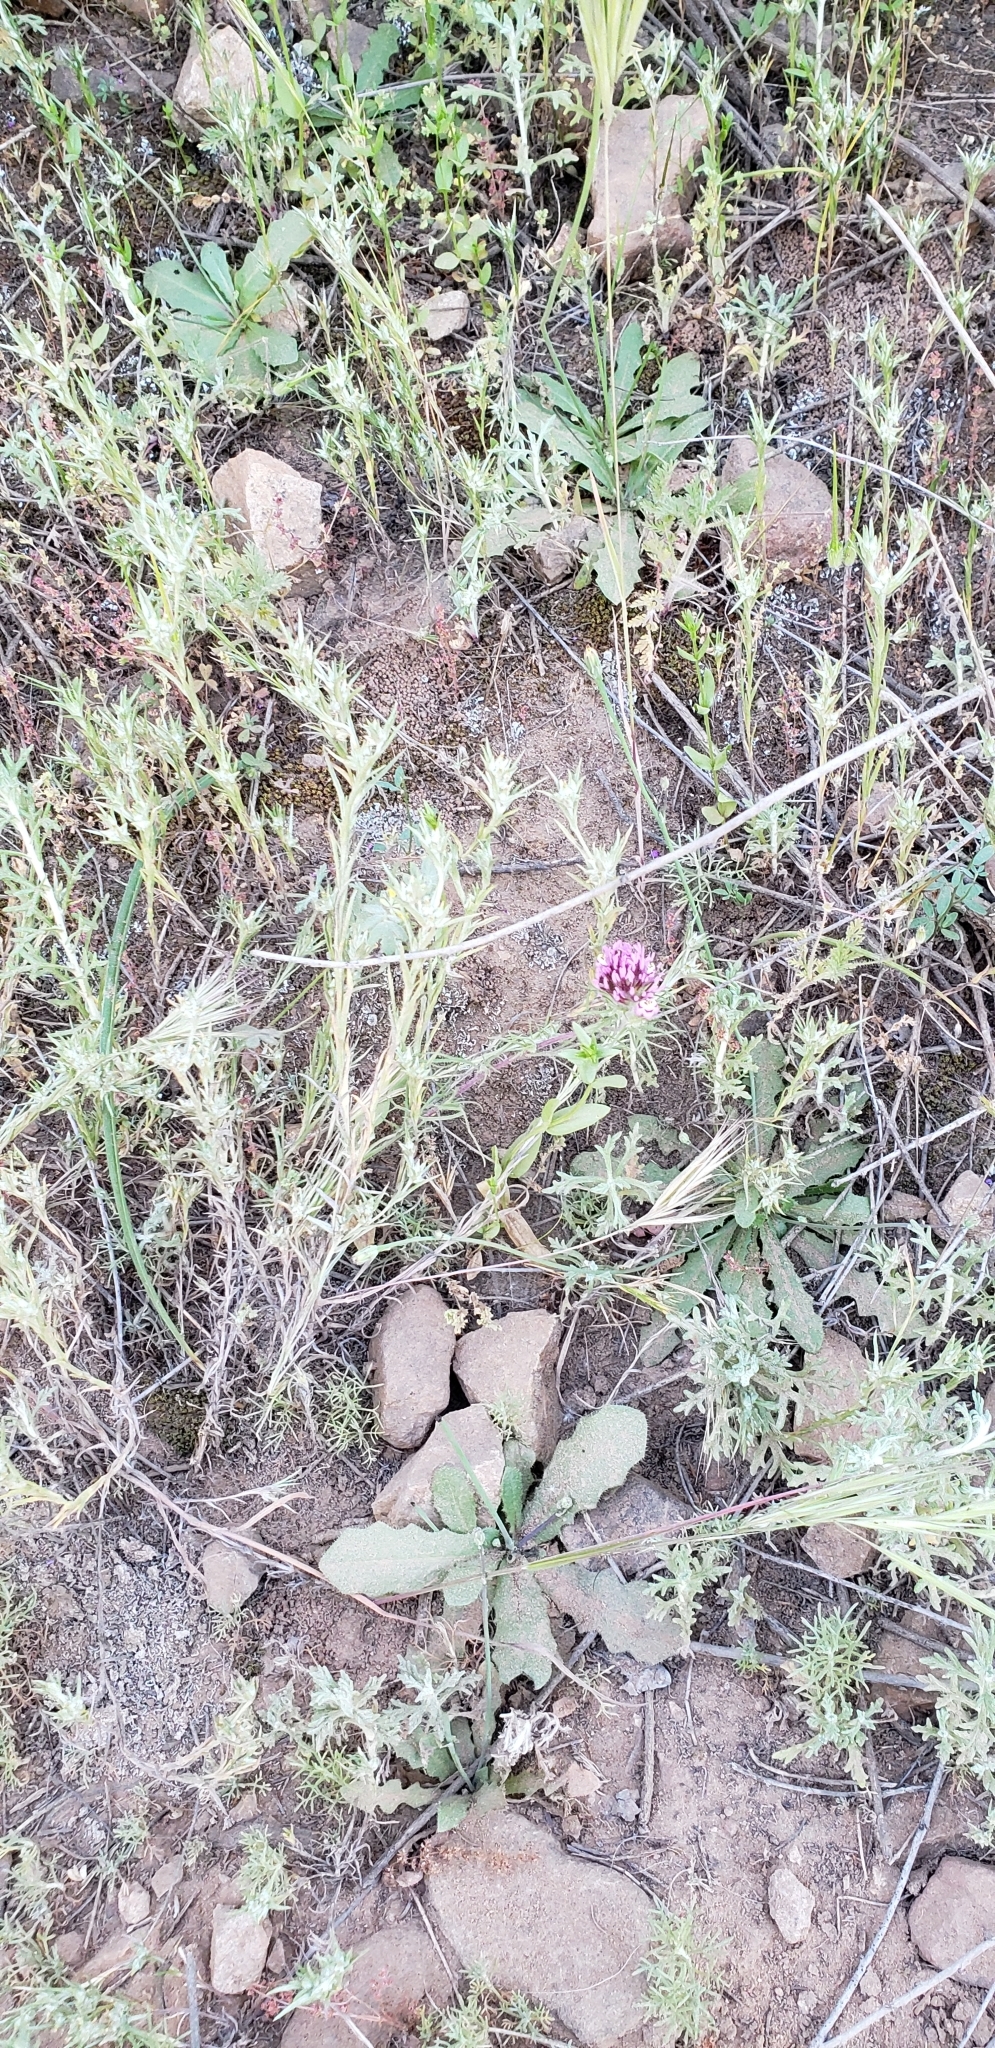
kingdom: Plantae
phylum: Tracheophyta
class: Magnoliopsida
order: Lamiales
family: Orobanchaceae
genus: Castilleja
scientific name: Castilleja exserta
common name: Purple owl-clover
